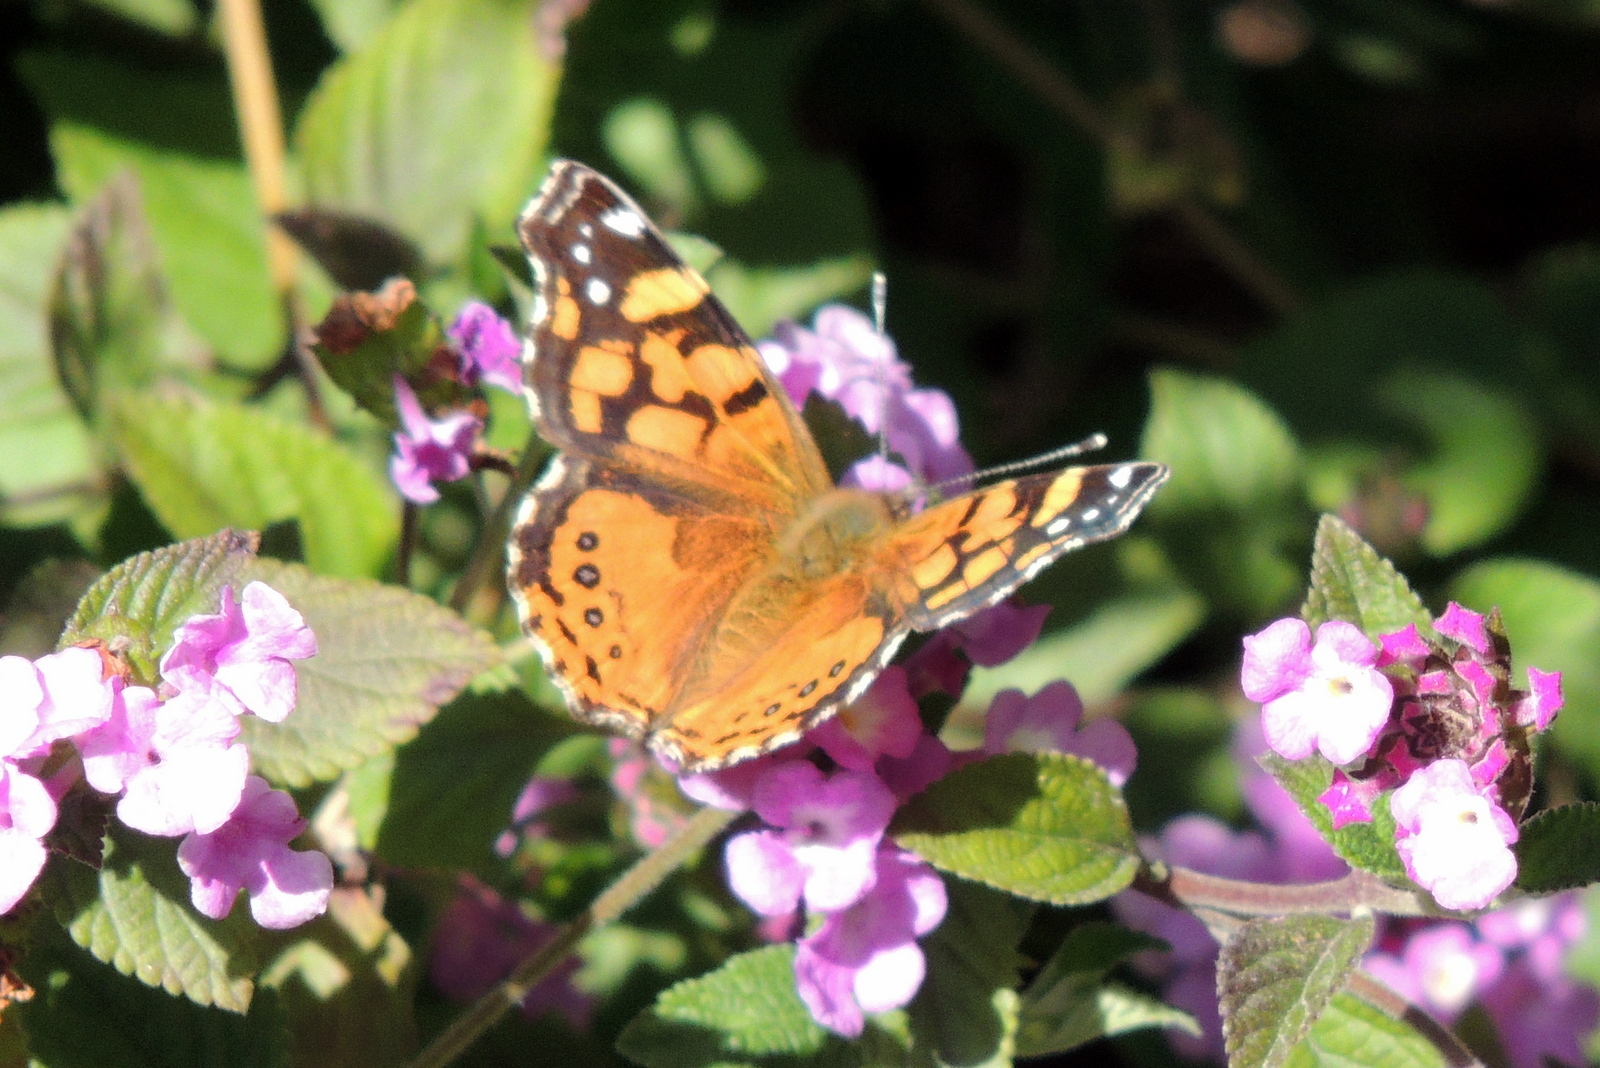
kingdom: Animalia
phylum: Arthropoda
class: Insecta
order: Lepidoptera
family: Nymphalidae
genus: Vanessa
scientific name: Vanessa annabella
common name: West coast lady
